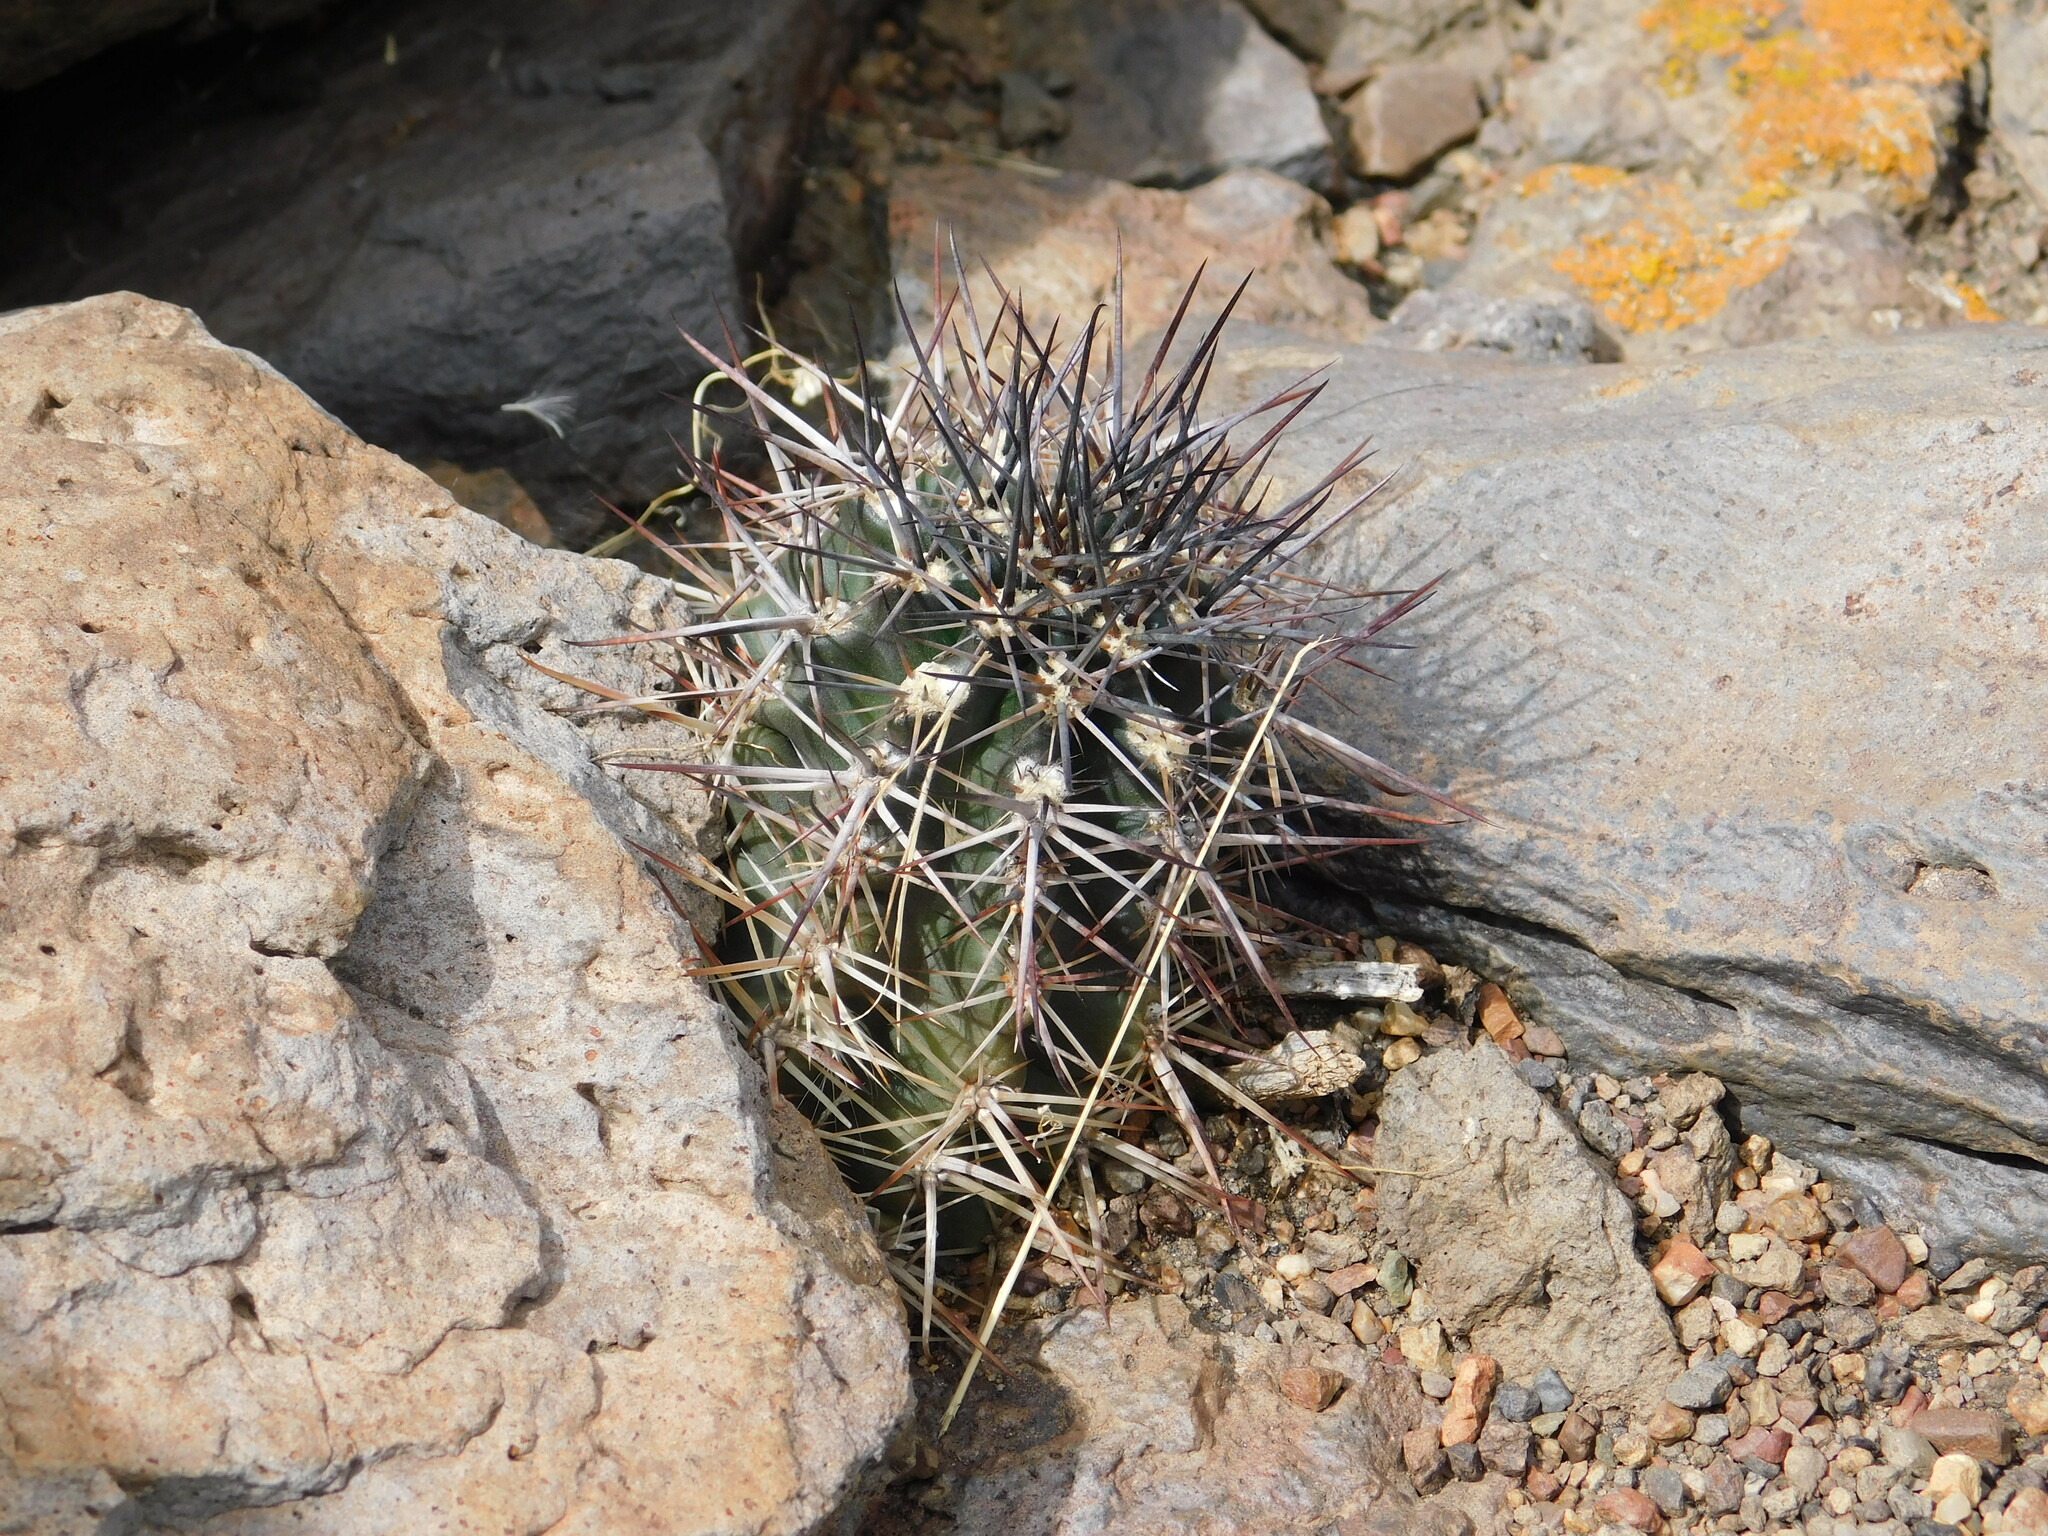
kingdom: Plantae
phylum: Tracheophyta
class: Magnoliopsida
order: Caryophyllales
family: Cactaceae
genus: Austrocactus
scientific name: Austrocactus coxii
